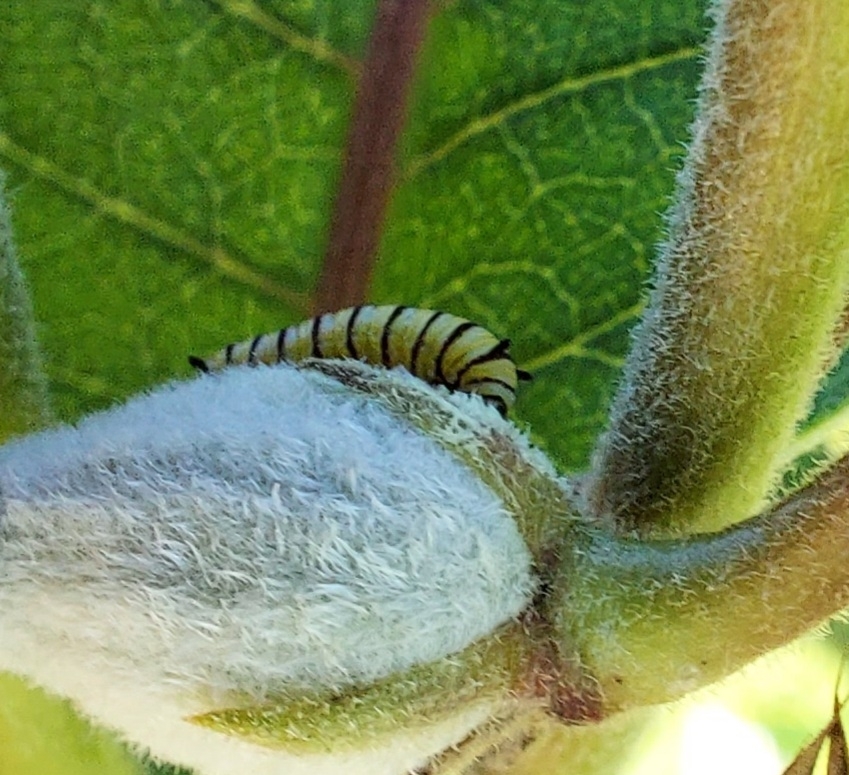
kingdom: Animalia
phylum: Arthropoda
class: Insecta
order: Lepidoptera
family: Nymphalidae
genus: Danaus
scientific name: Danaus plexippus
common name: Monarch
